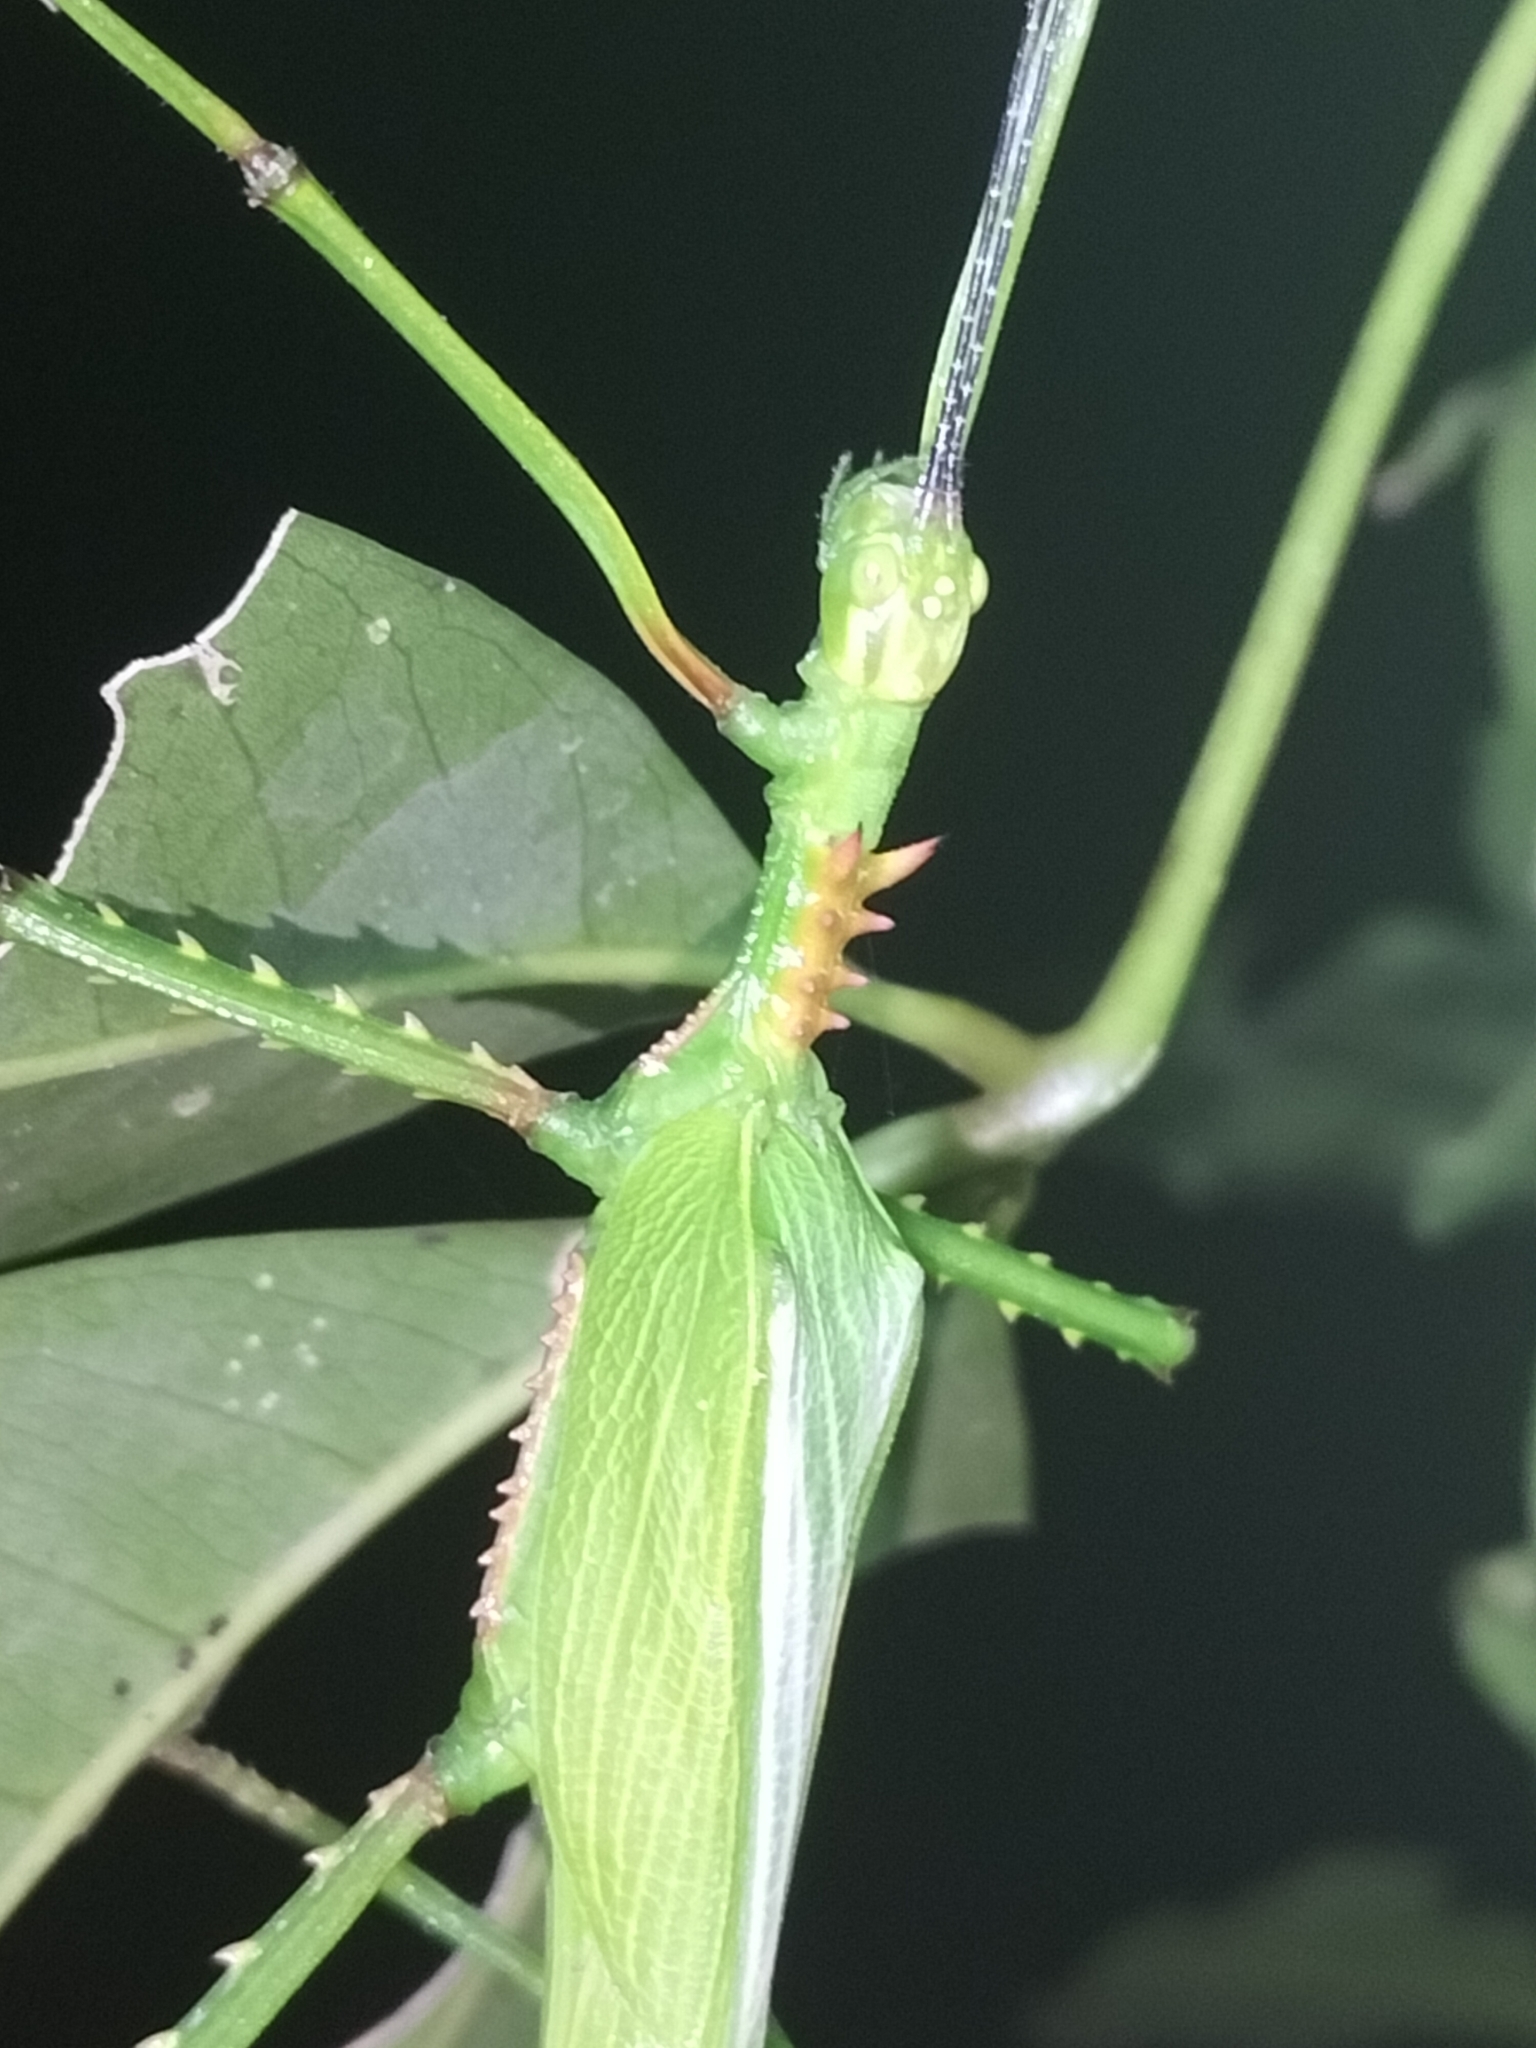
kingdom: Animalia
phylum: Arthropoda
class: Insecta
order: Phasmida
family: Phasmatidae
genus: Parapodacanthus
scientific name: Parapodacanthus hasenpuschorum
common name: Hasenpusch family stick-insect
